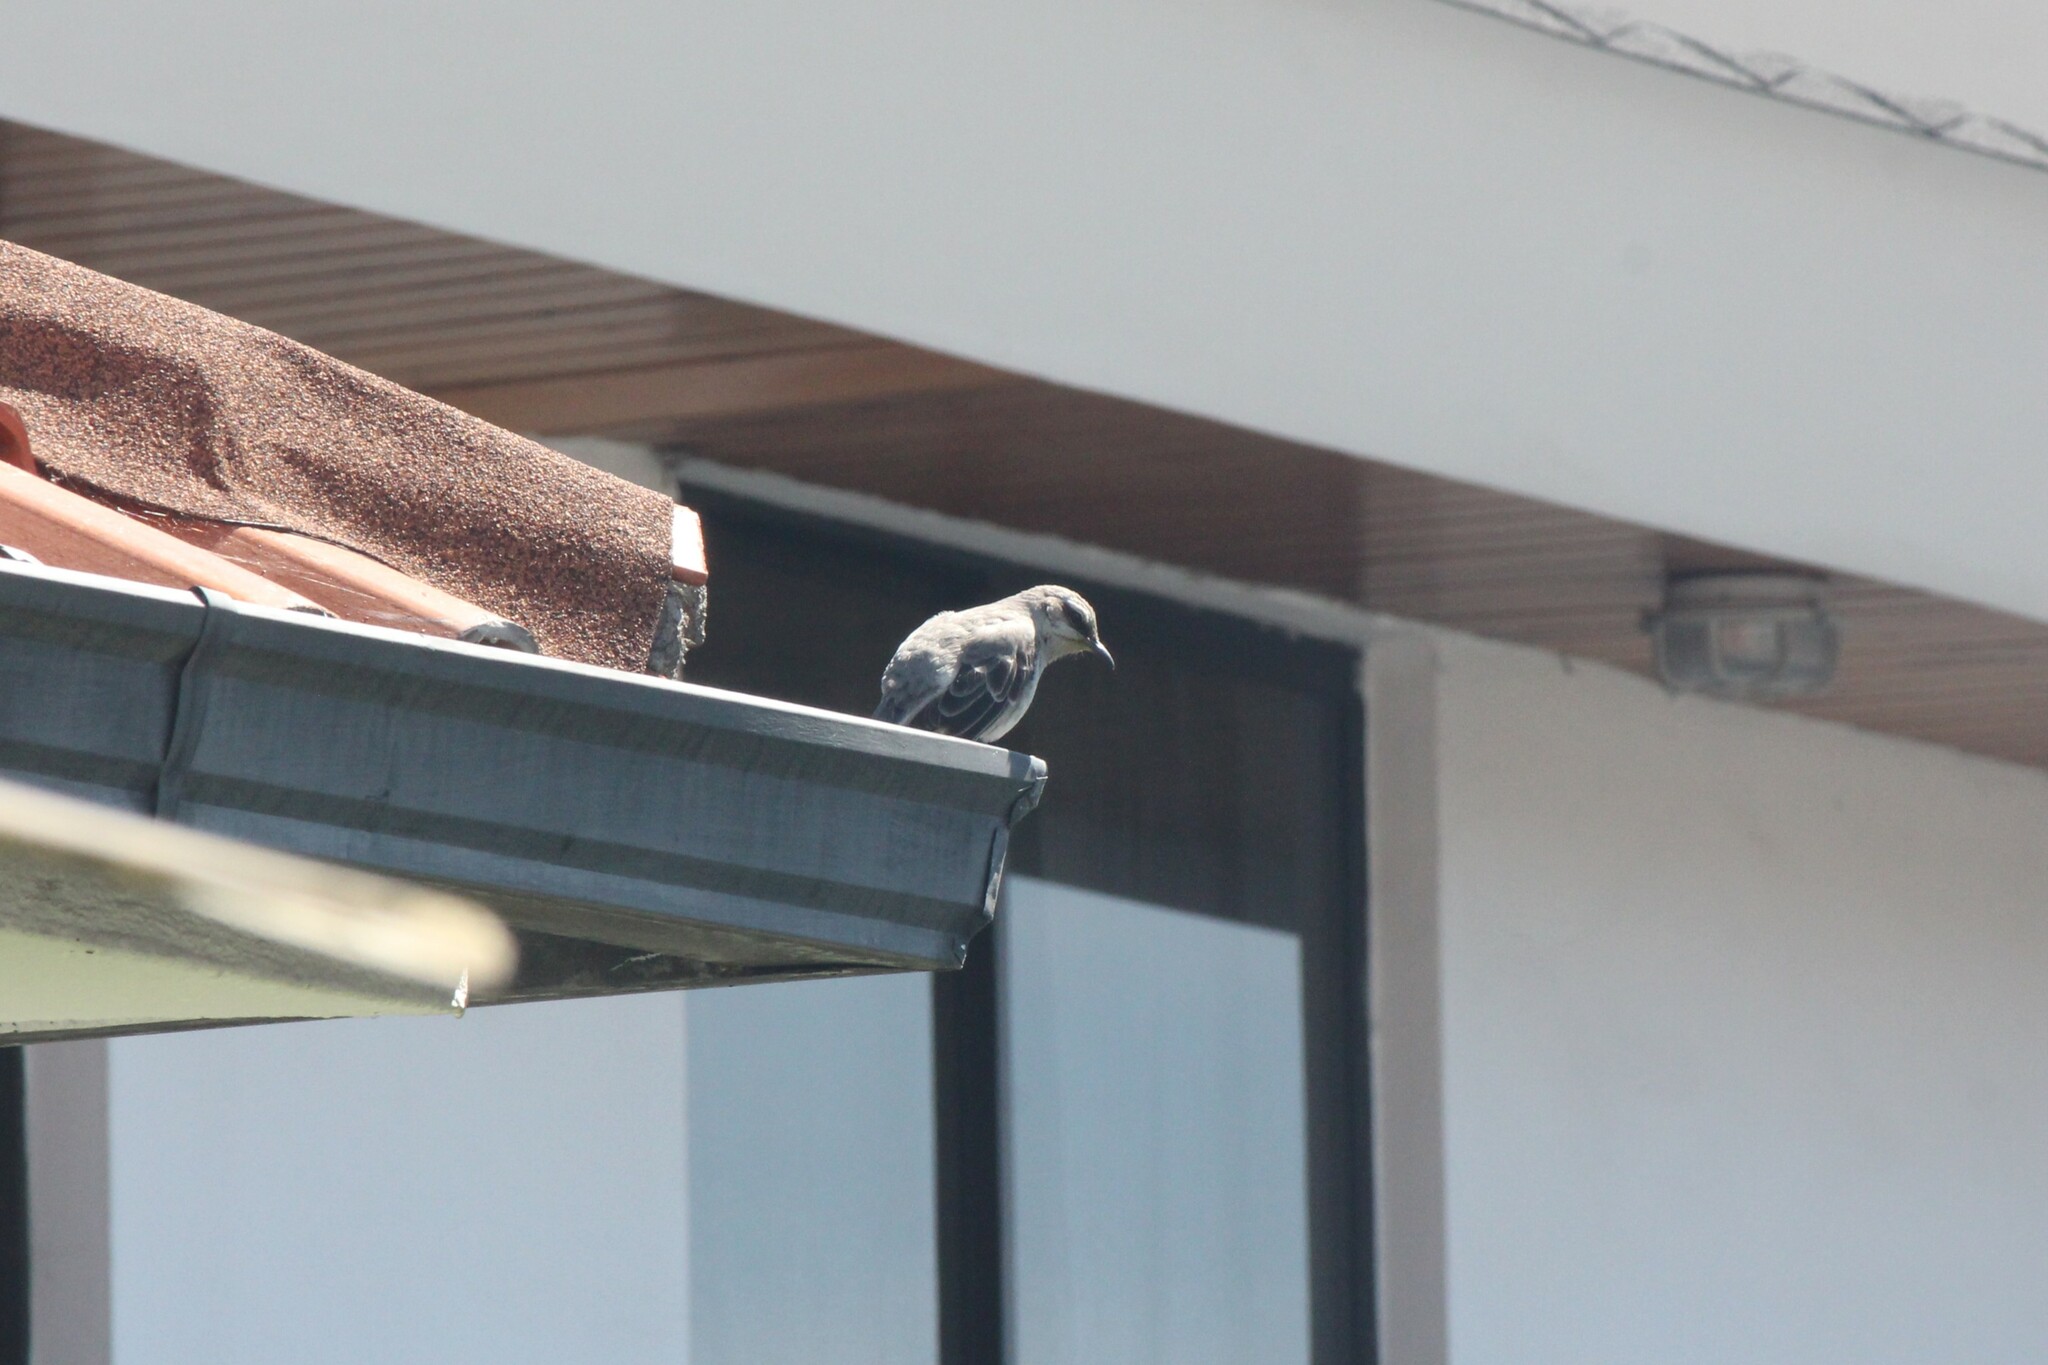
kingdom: Animalia
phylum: Chordata
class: Aves
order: Passeriformes
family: Mimidae
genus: Mimus
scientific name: Mimus gilvus
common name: Tropical mockingbird
